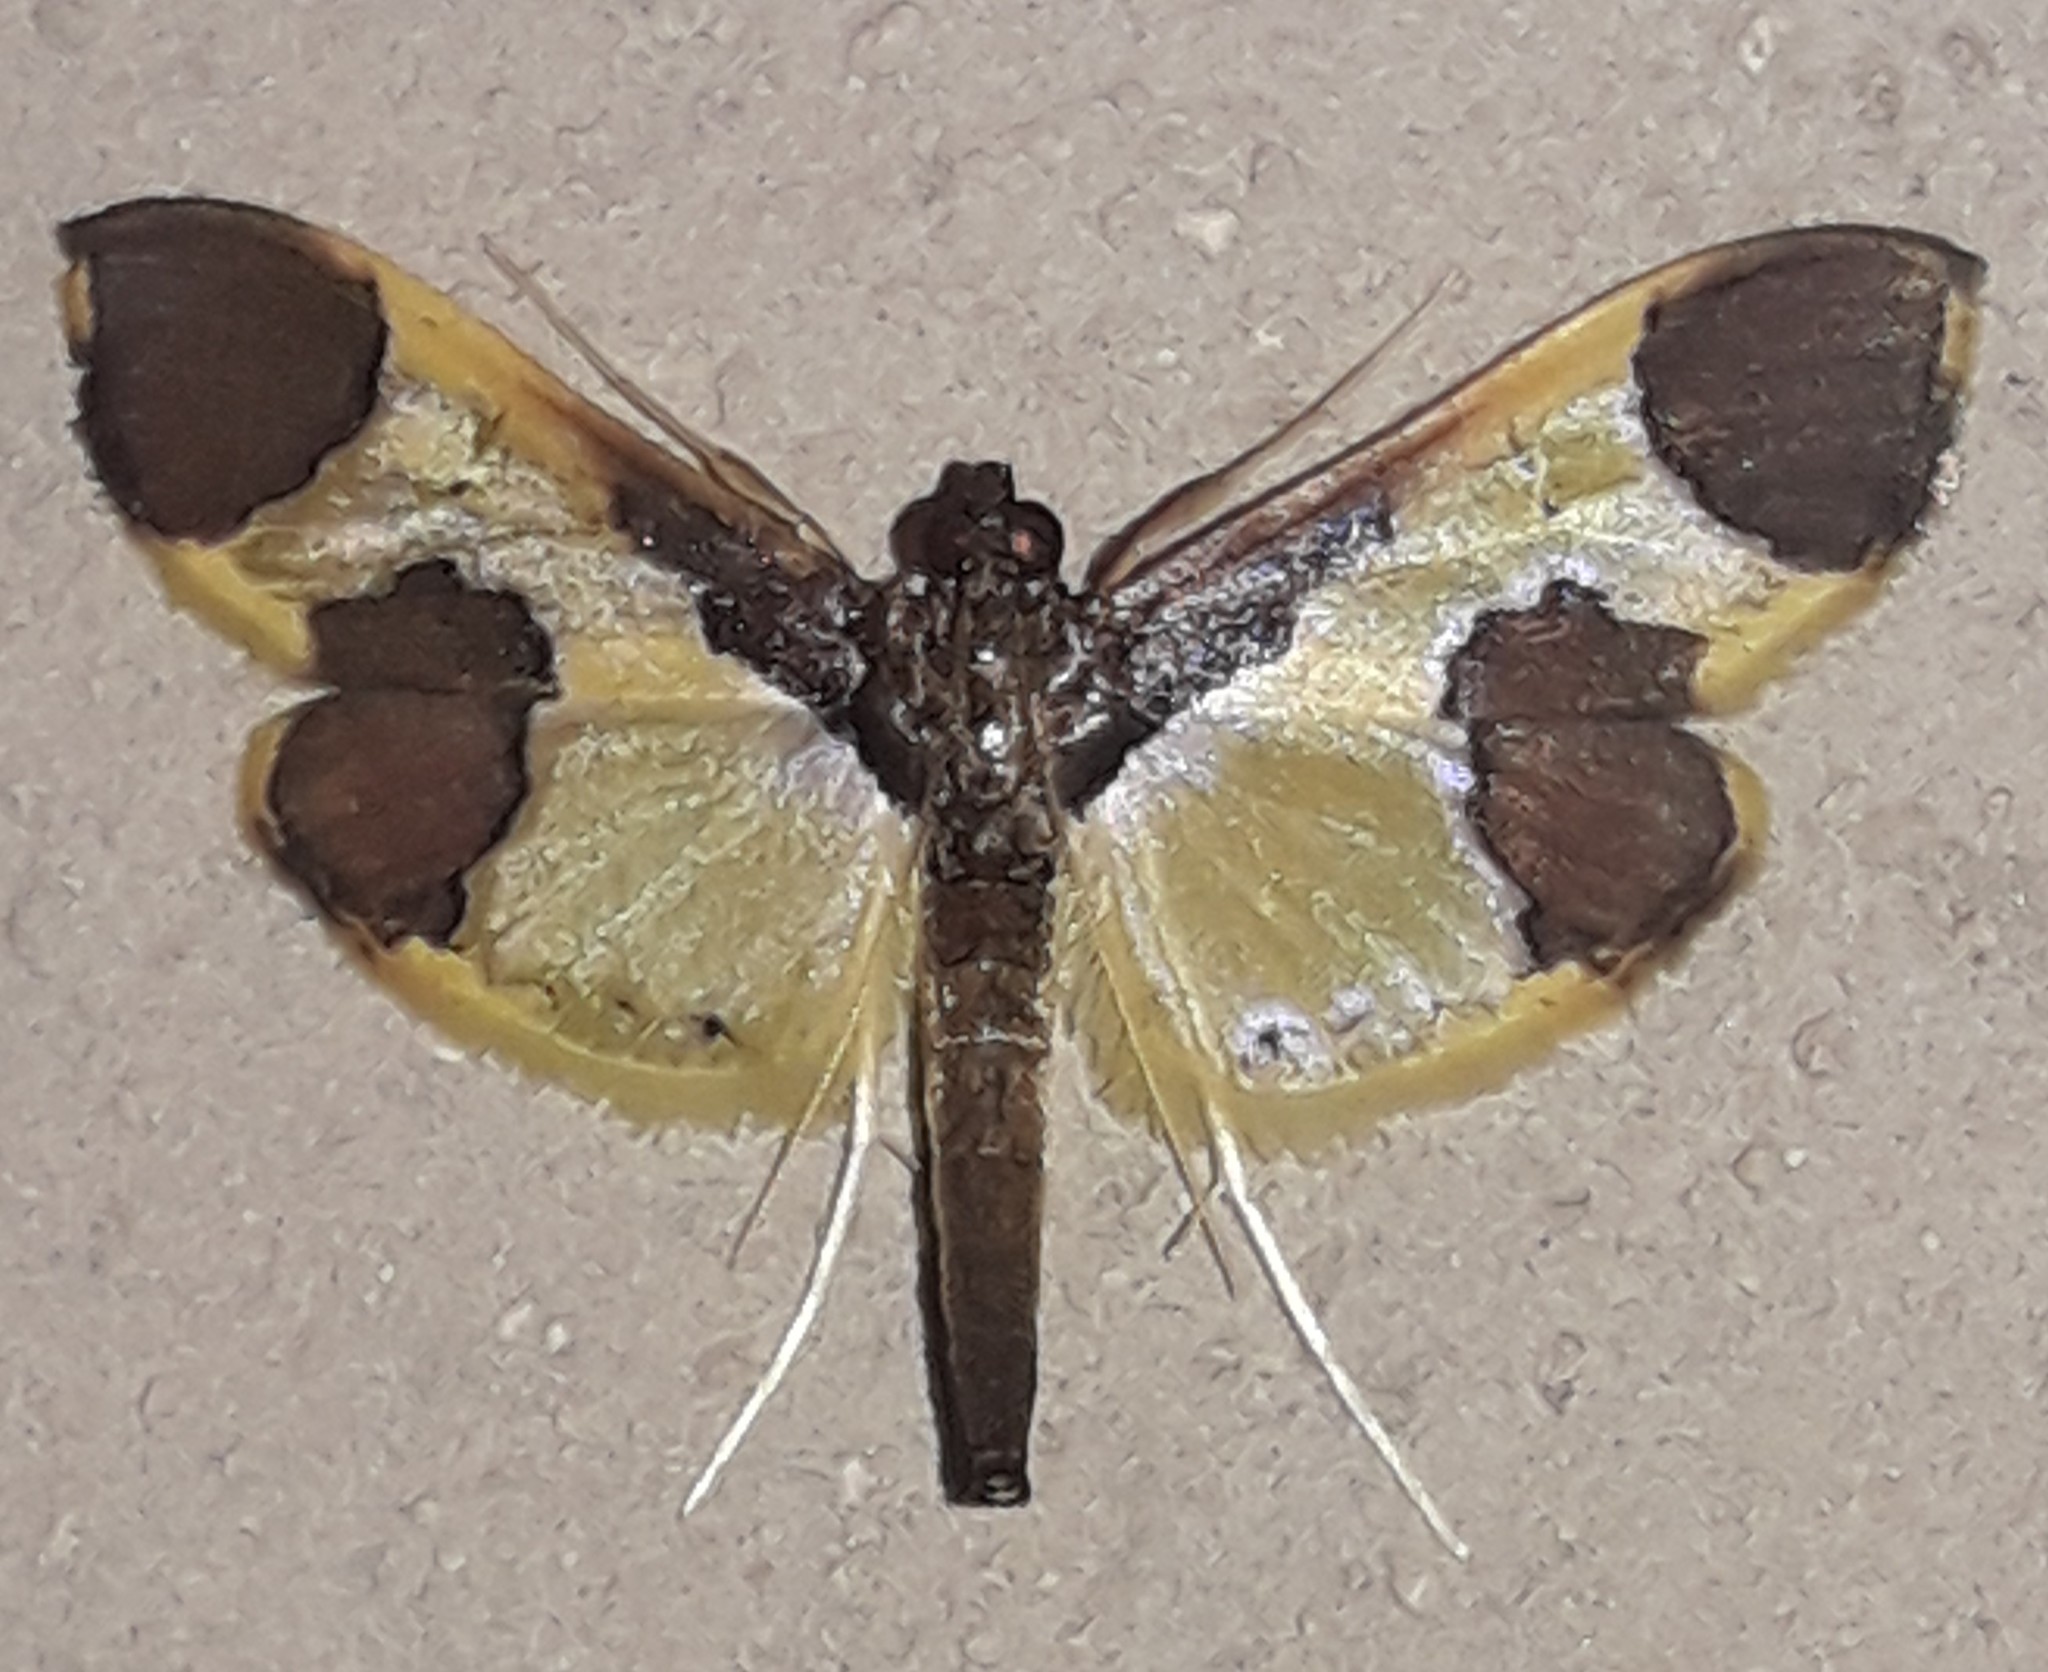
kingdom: Animalia
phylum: Arthropoda
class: Insecta
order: Lepidoptera
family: Crambidae
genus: Syllepis
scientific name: Syllepis marialis
